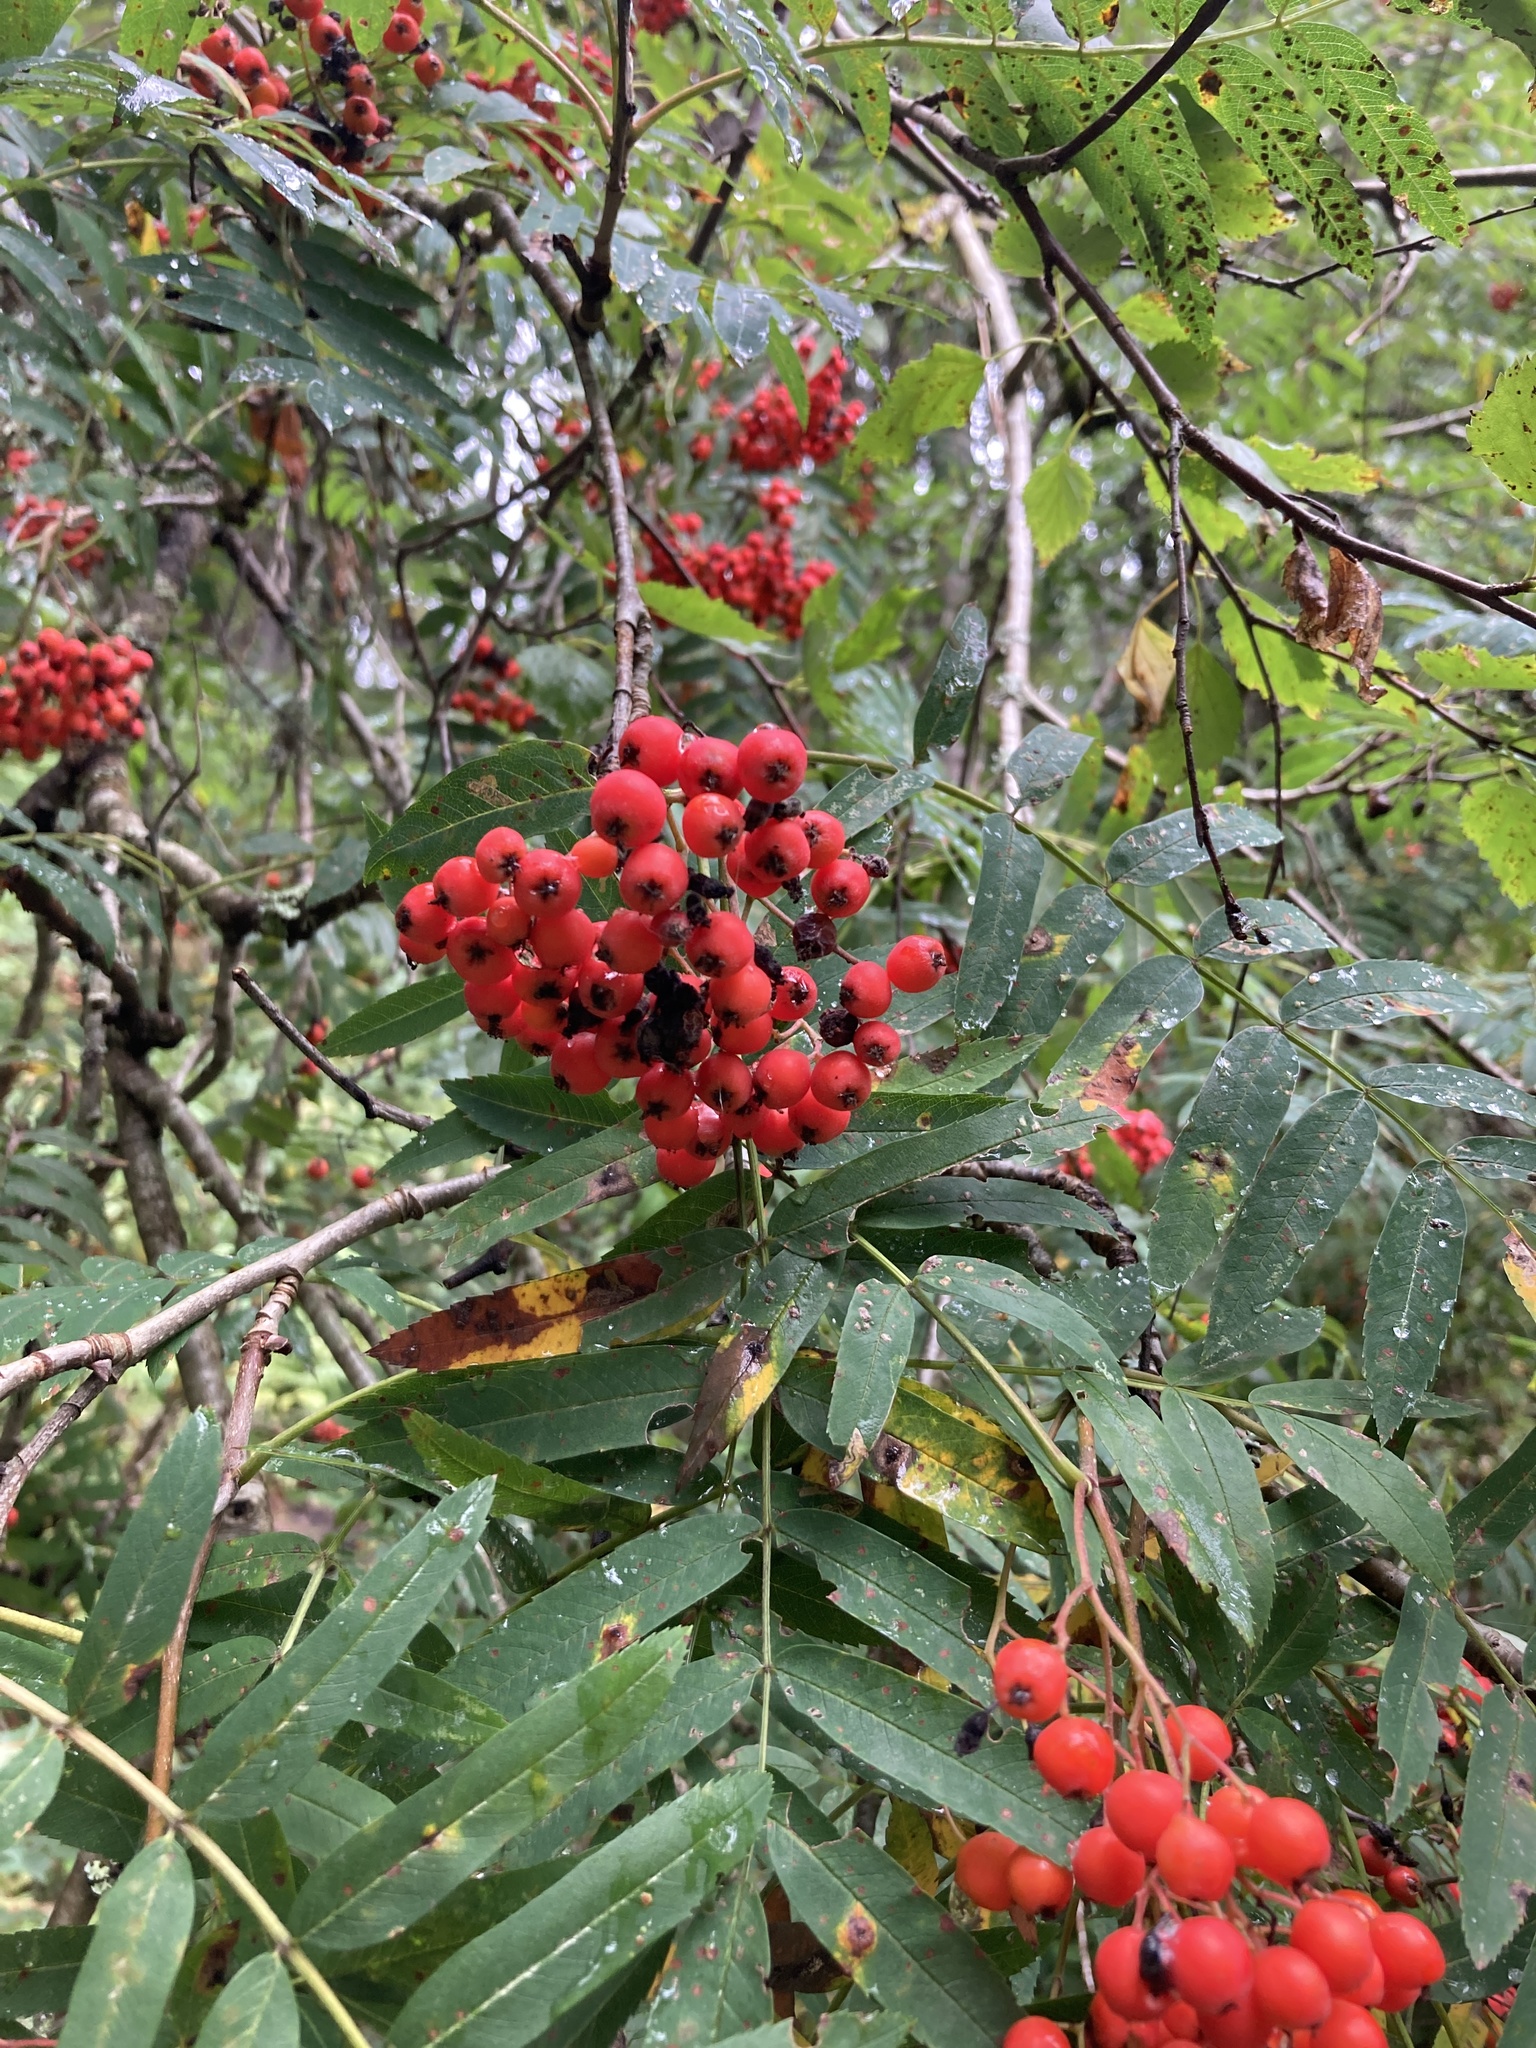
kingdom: Plantae
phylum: Tracheophyta
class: Magnoliopsida
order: Rosales
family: Rosaceae
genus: Sorbus
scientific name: Sorbus aucuparia
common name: Rowan
